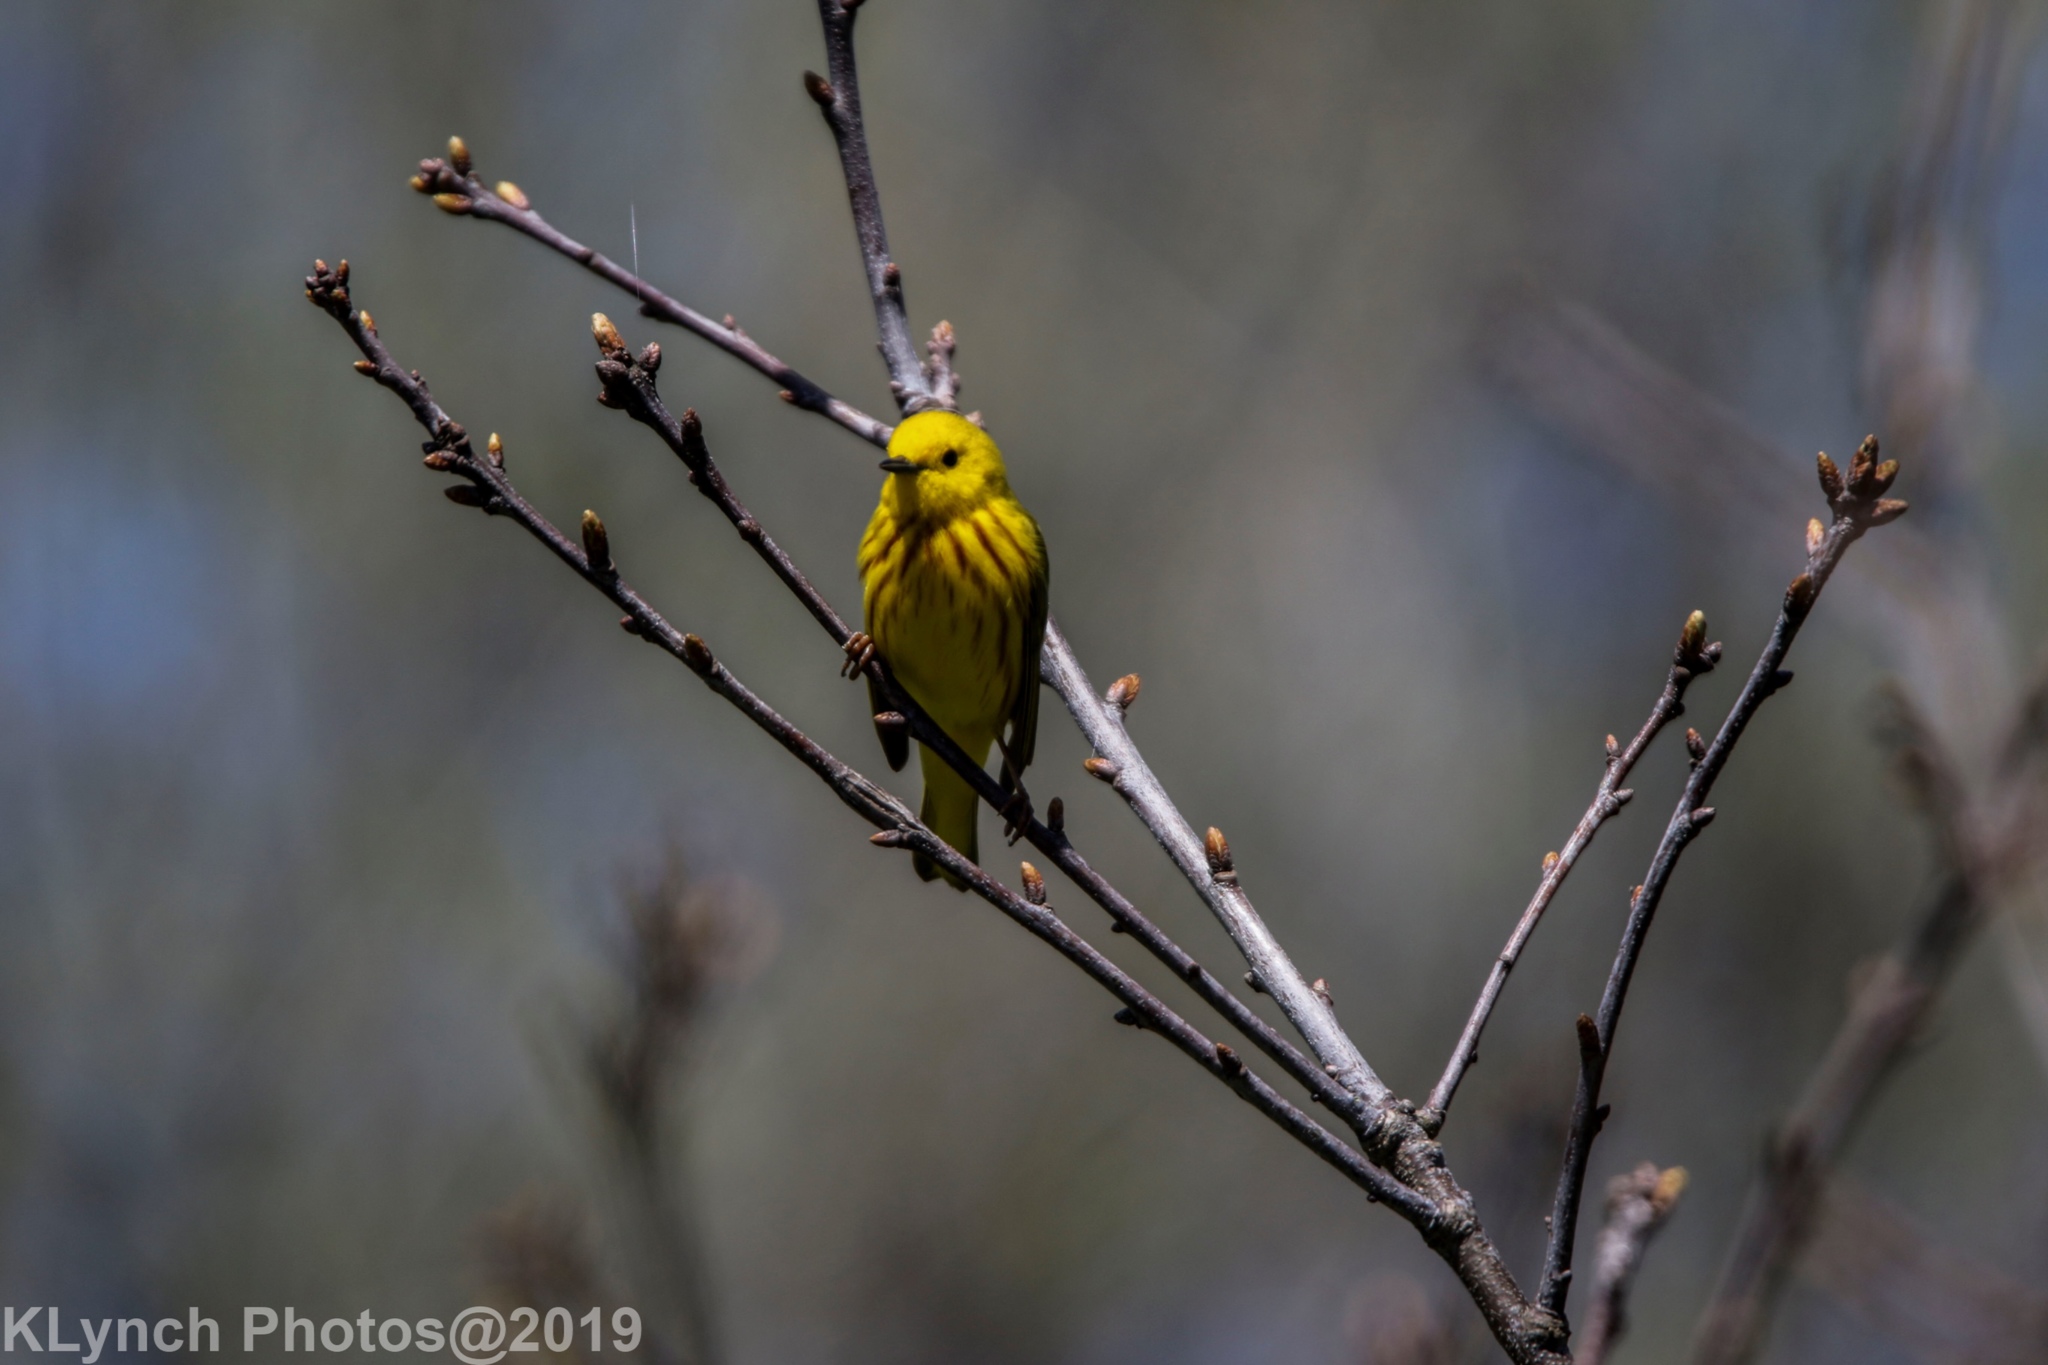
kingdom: Animalia
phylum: Chordata
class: Aves
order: Passeriformes
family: Parulidae
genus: Setophaga
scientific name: Setophaga petechia
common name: Yellow warbler
